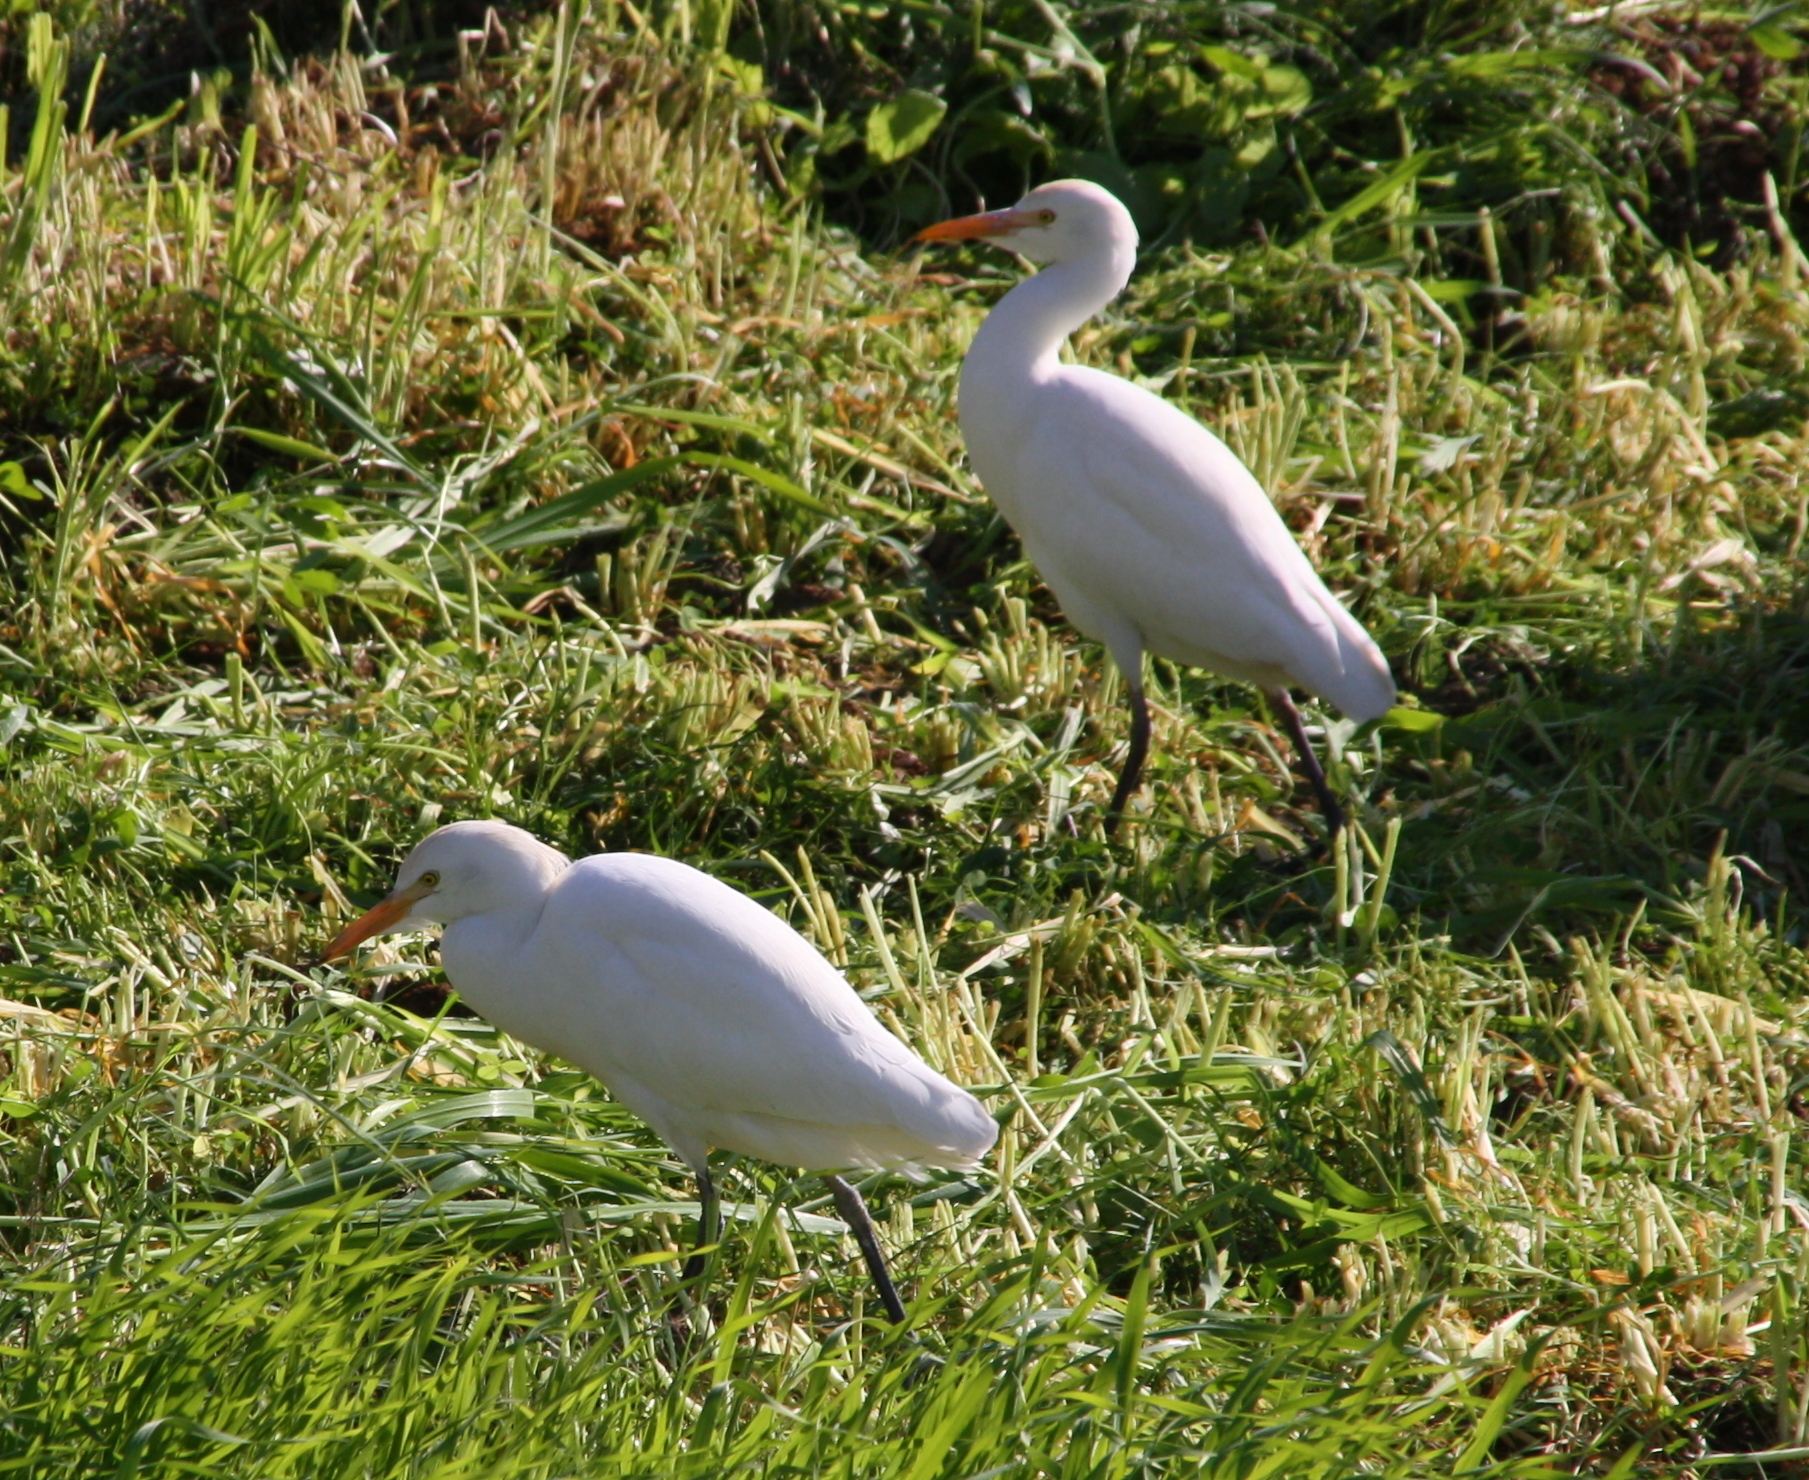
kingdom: Animalia
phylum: Chordata
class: Aves
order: Pelecaniformes
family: Ardeidae
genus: Bubulcus
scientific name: Bubulcus ibis
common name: Cattle egret
